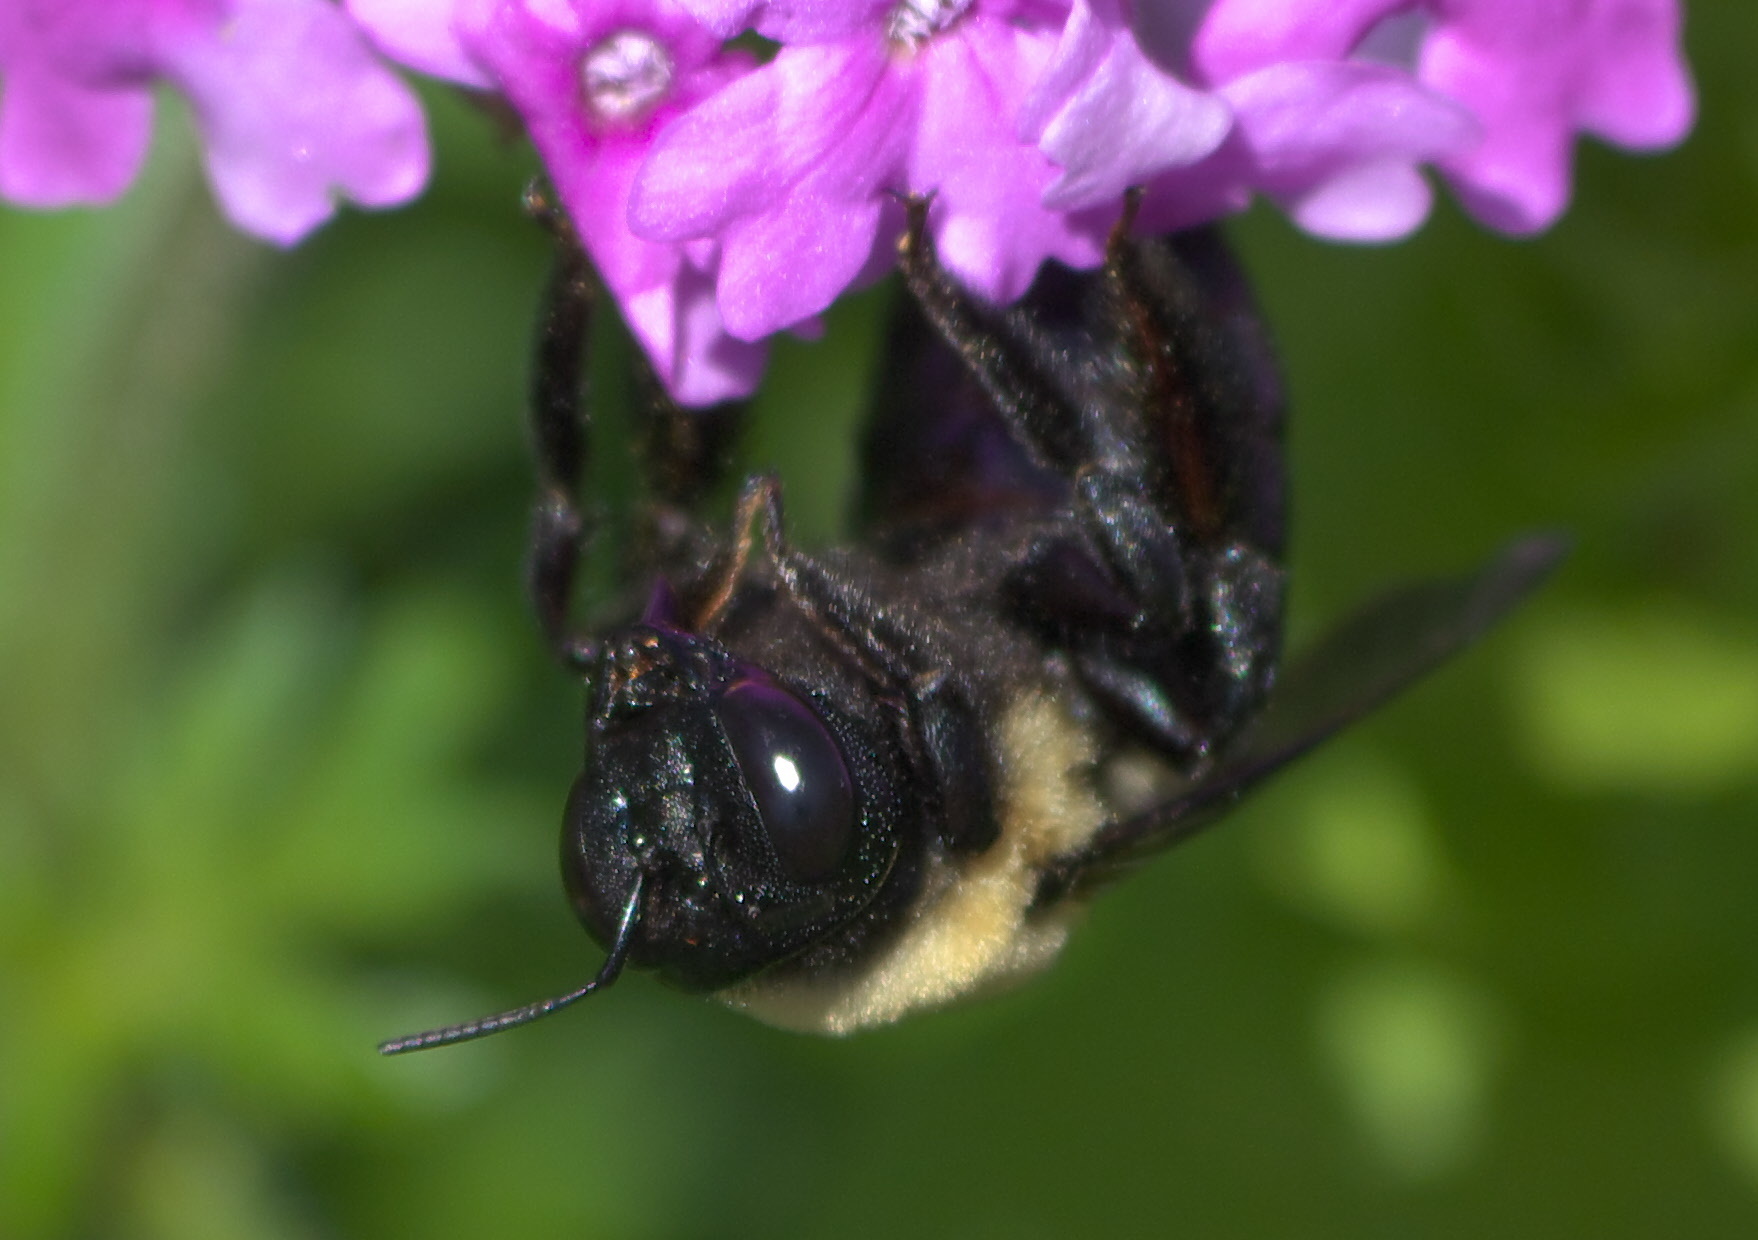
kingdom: Animalia
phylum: Arthropoda
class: Insecta
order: Hymenoptera
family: Apidae
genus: Xylocopa
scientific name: Xylocopa virginica
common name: Carpenter bee
